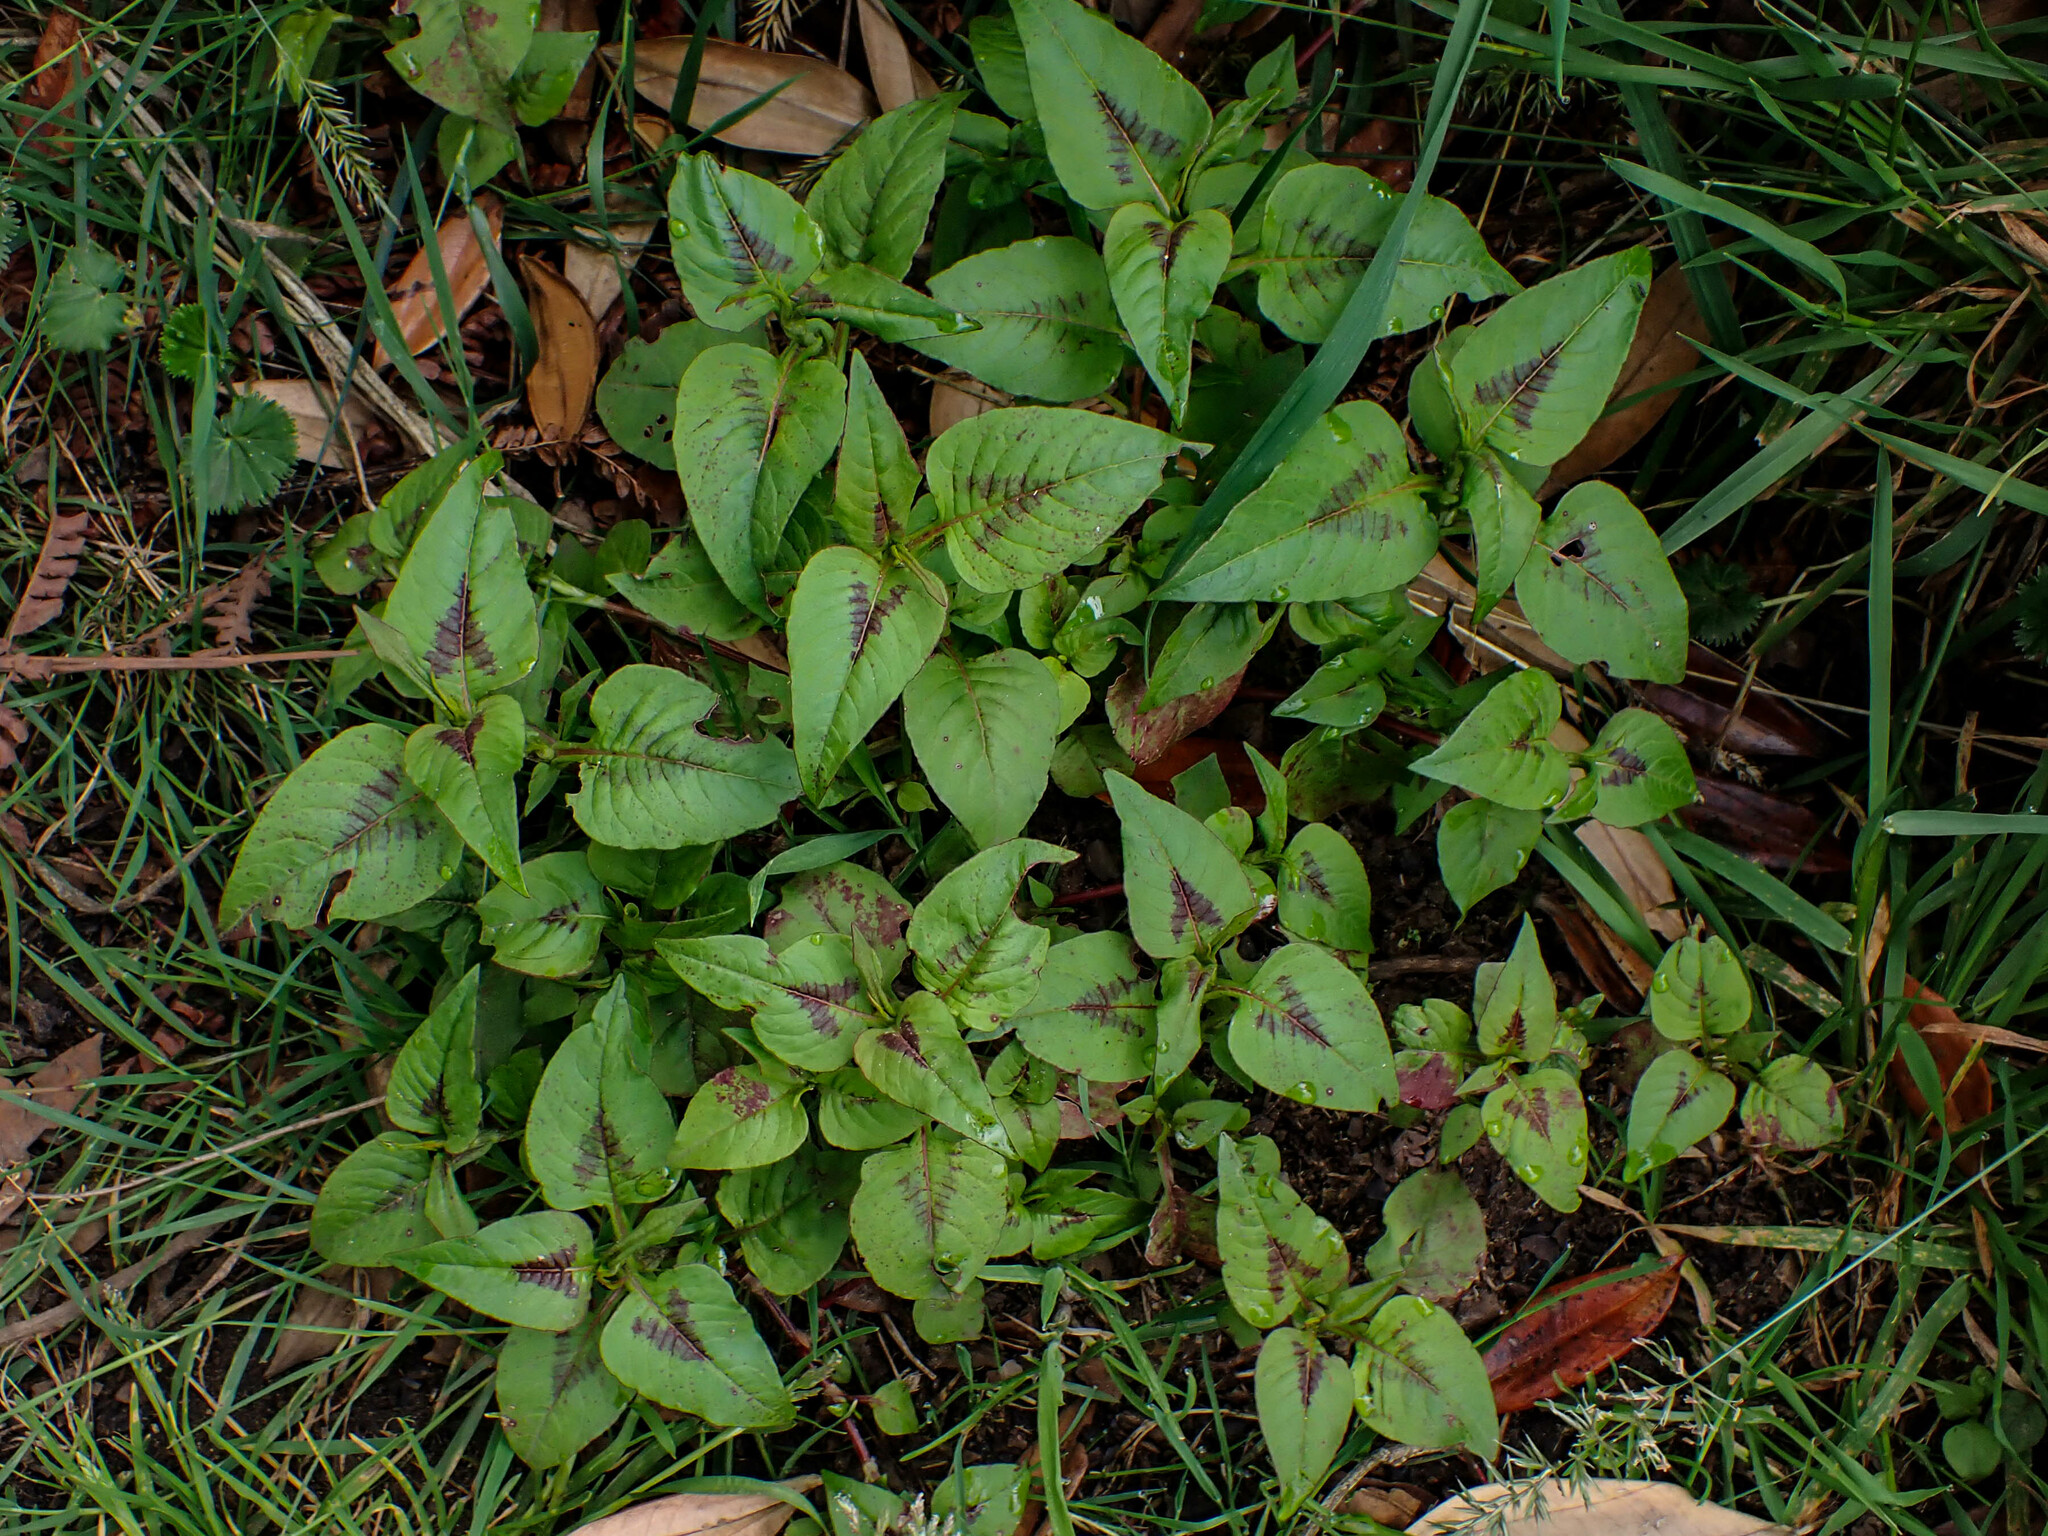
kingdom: Plantae
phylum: Tracheophyta
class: Magnoliopsida
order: Caryophyllales
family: Polygonaceae
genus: Persicaria
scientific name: Persicaria nepalensis
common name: Nepal persicaria
